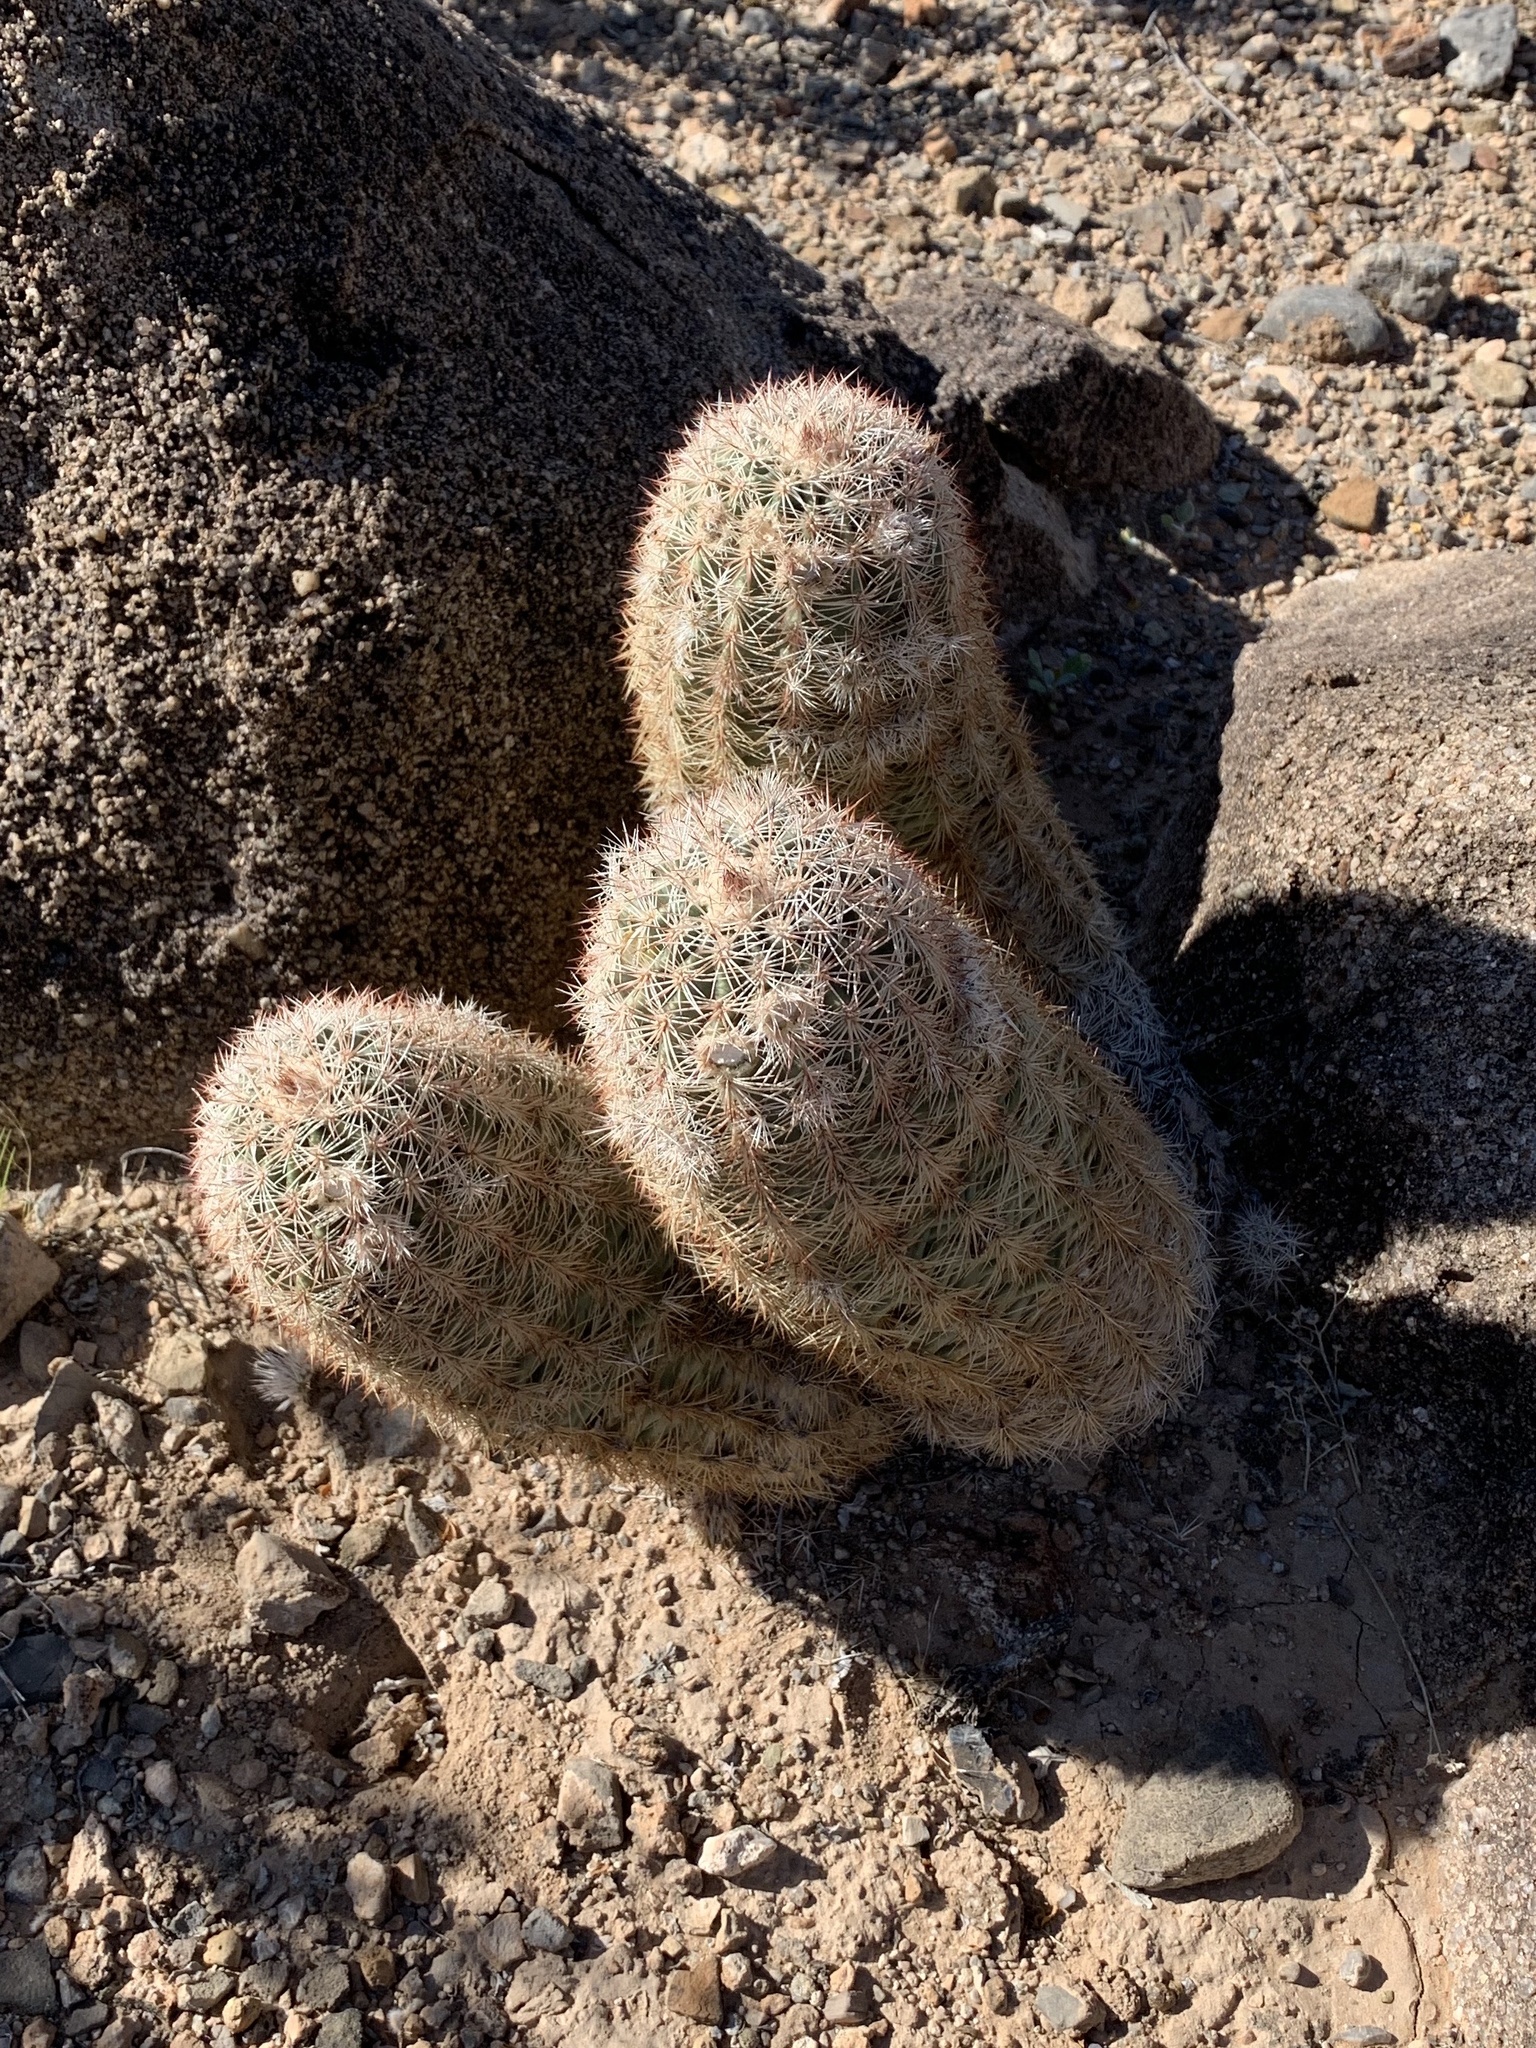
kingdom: Plantae
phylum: Tracheophyta
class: Magnoliopsida
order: Caryophyllales
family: Cactaceae
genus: Echinocereus
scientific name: Echinocereus dasyacanthus
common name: Spiny hedgehog cactus
